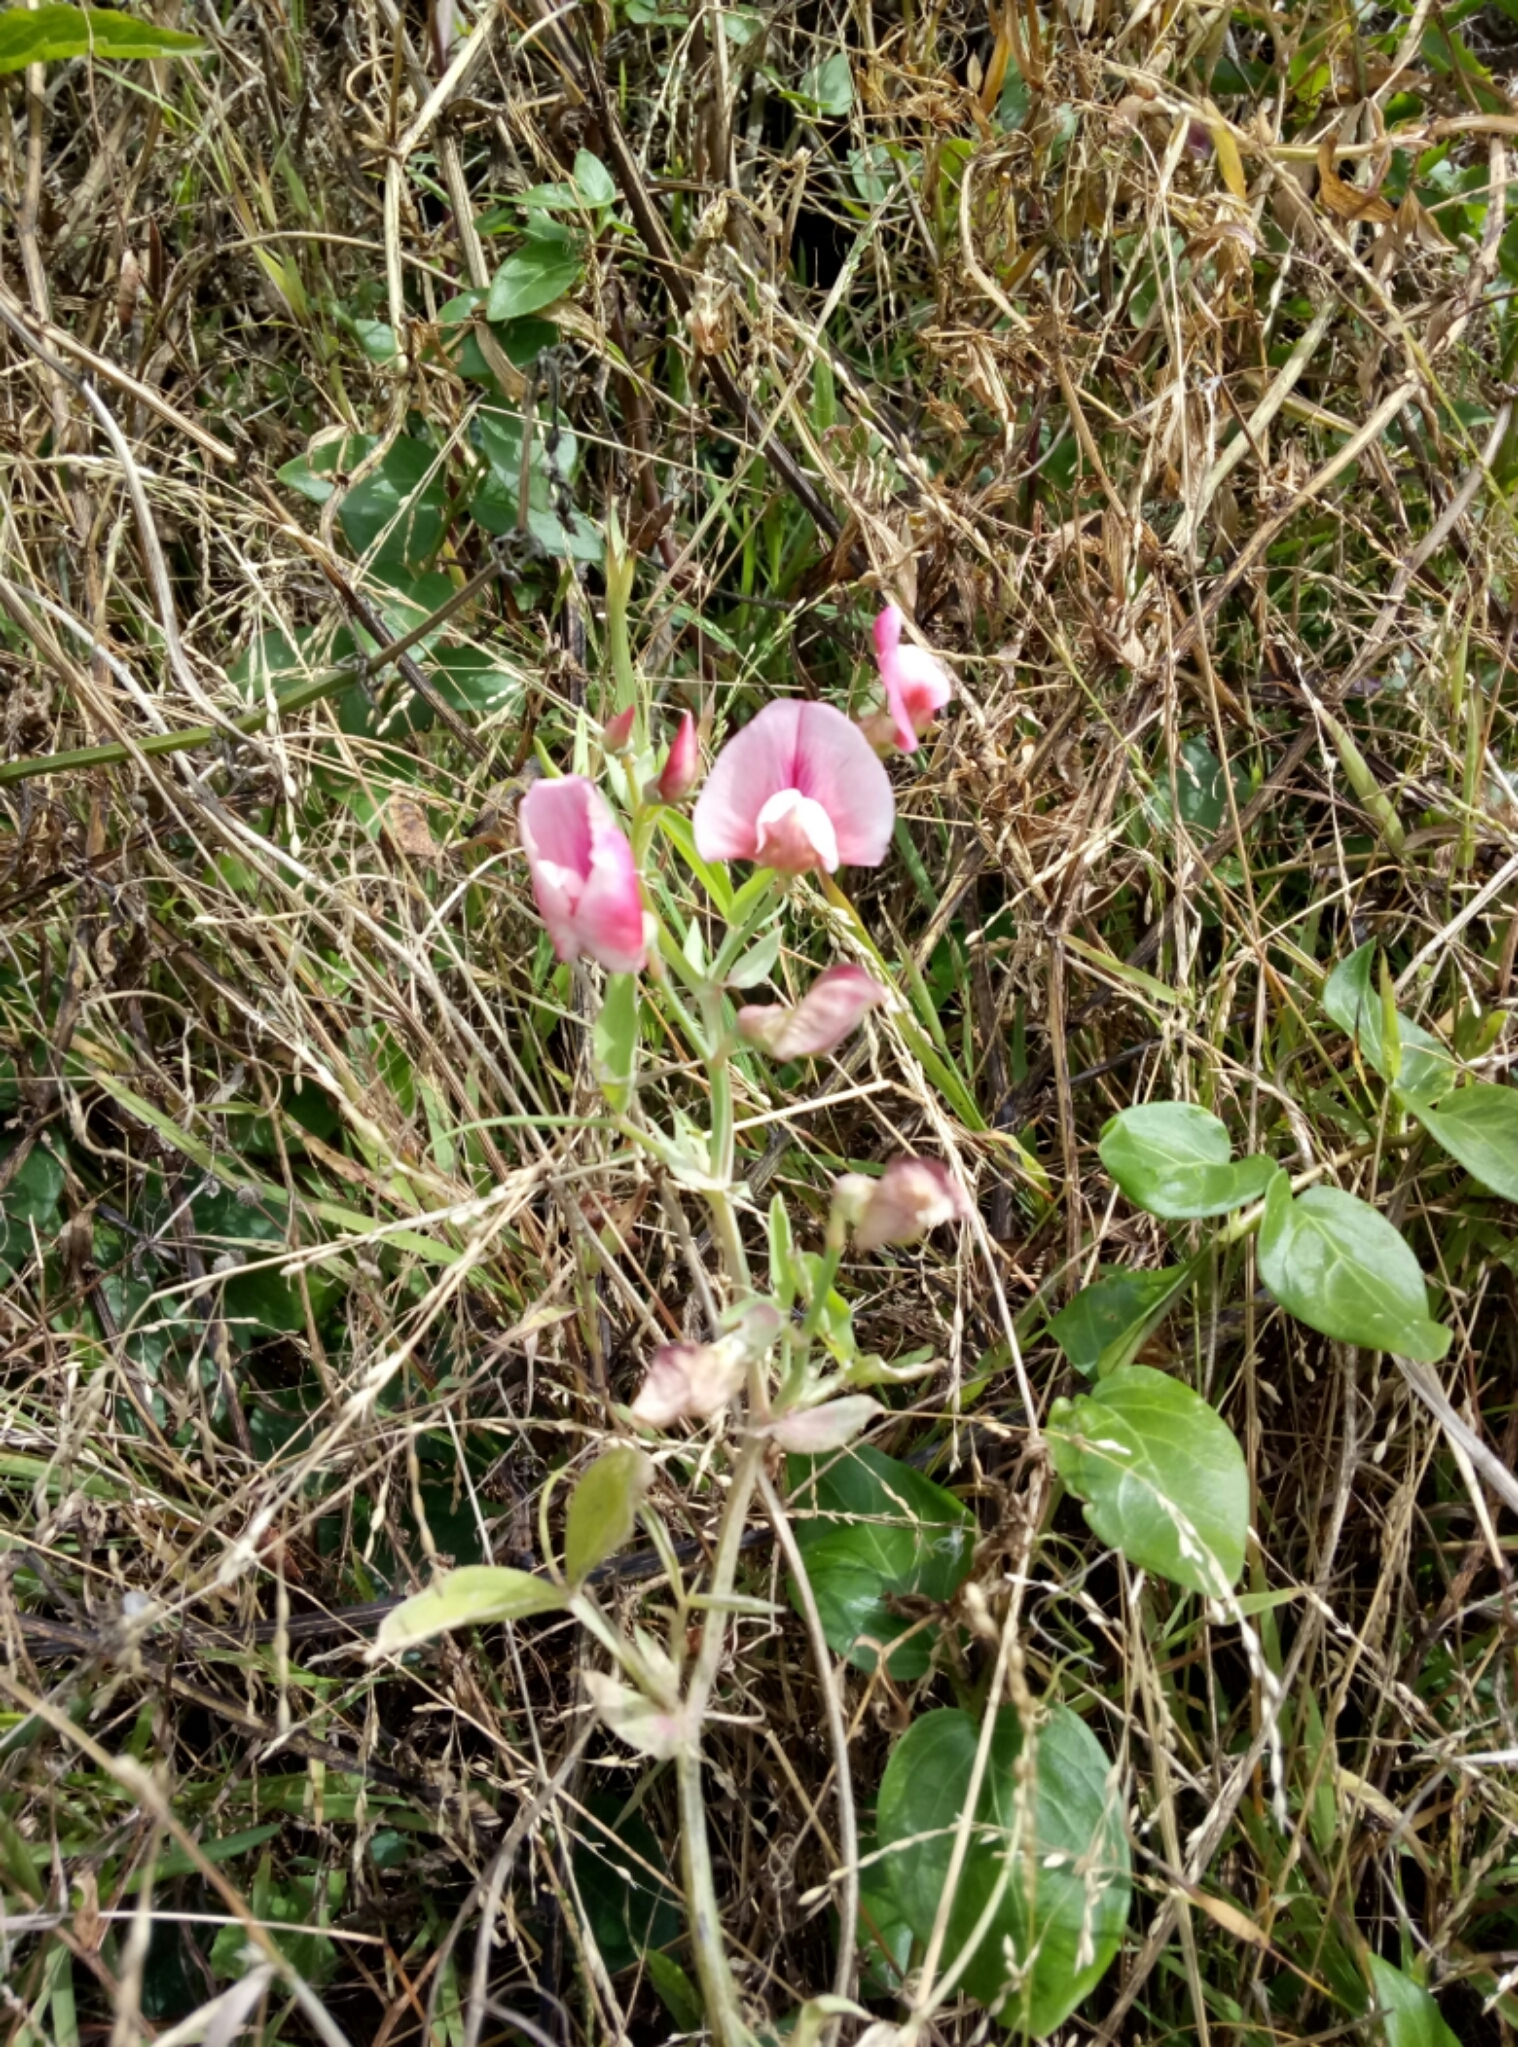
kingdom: Plantae
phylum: Tracheophyta
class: Magnoliopsida
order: Fabales
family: Fabaceae
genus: Lathyrus
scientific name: Lathyrus latifolius
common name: Perennial pea
